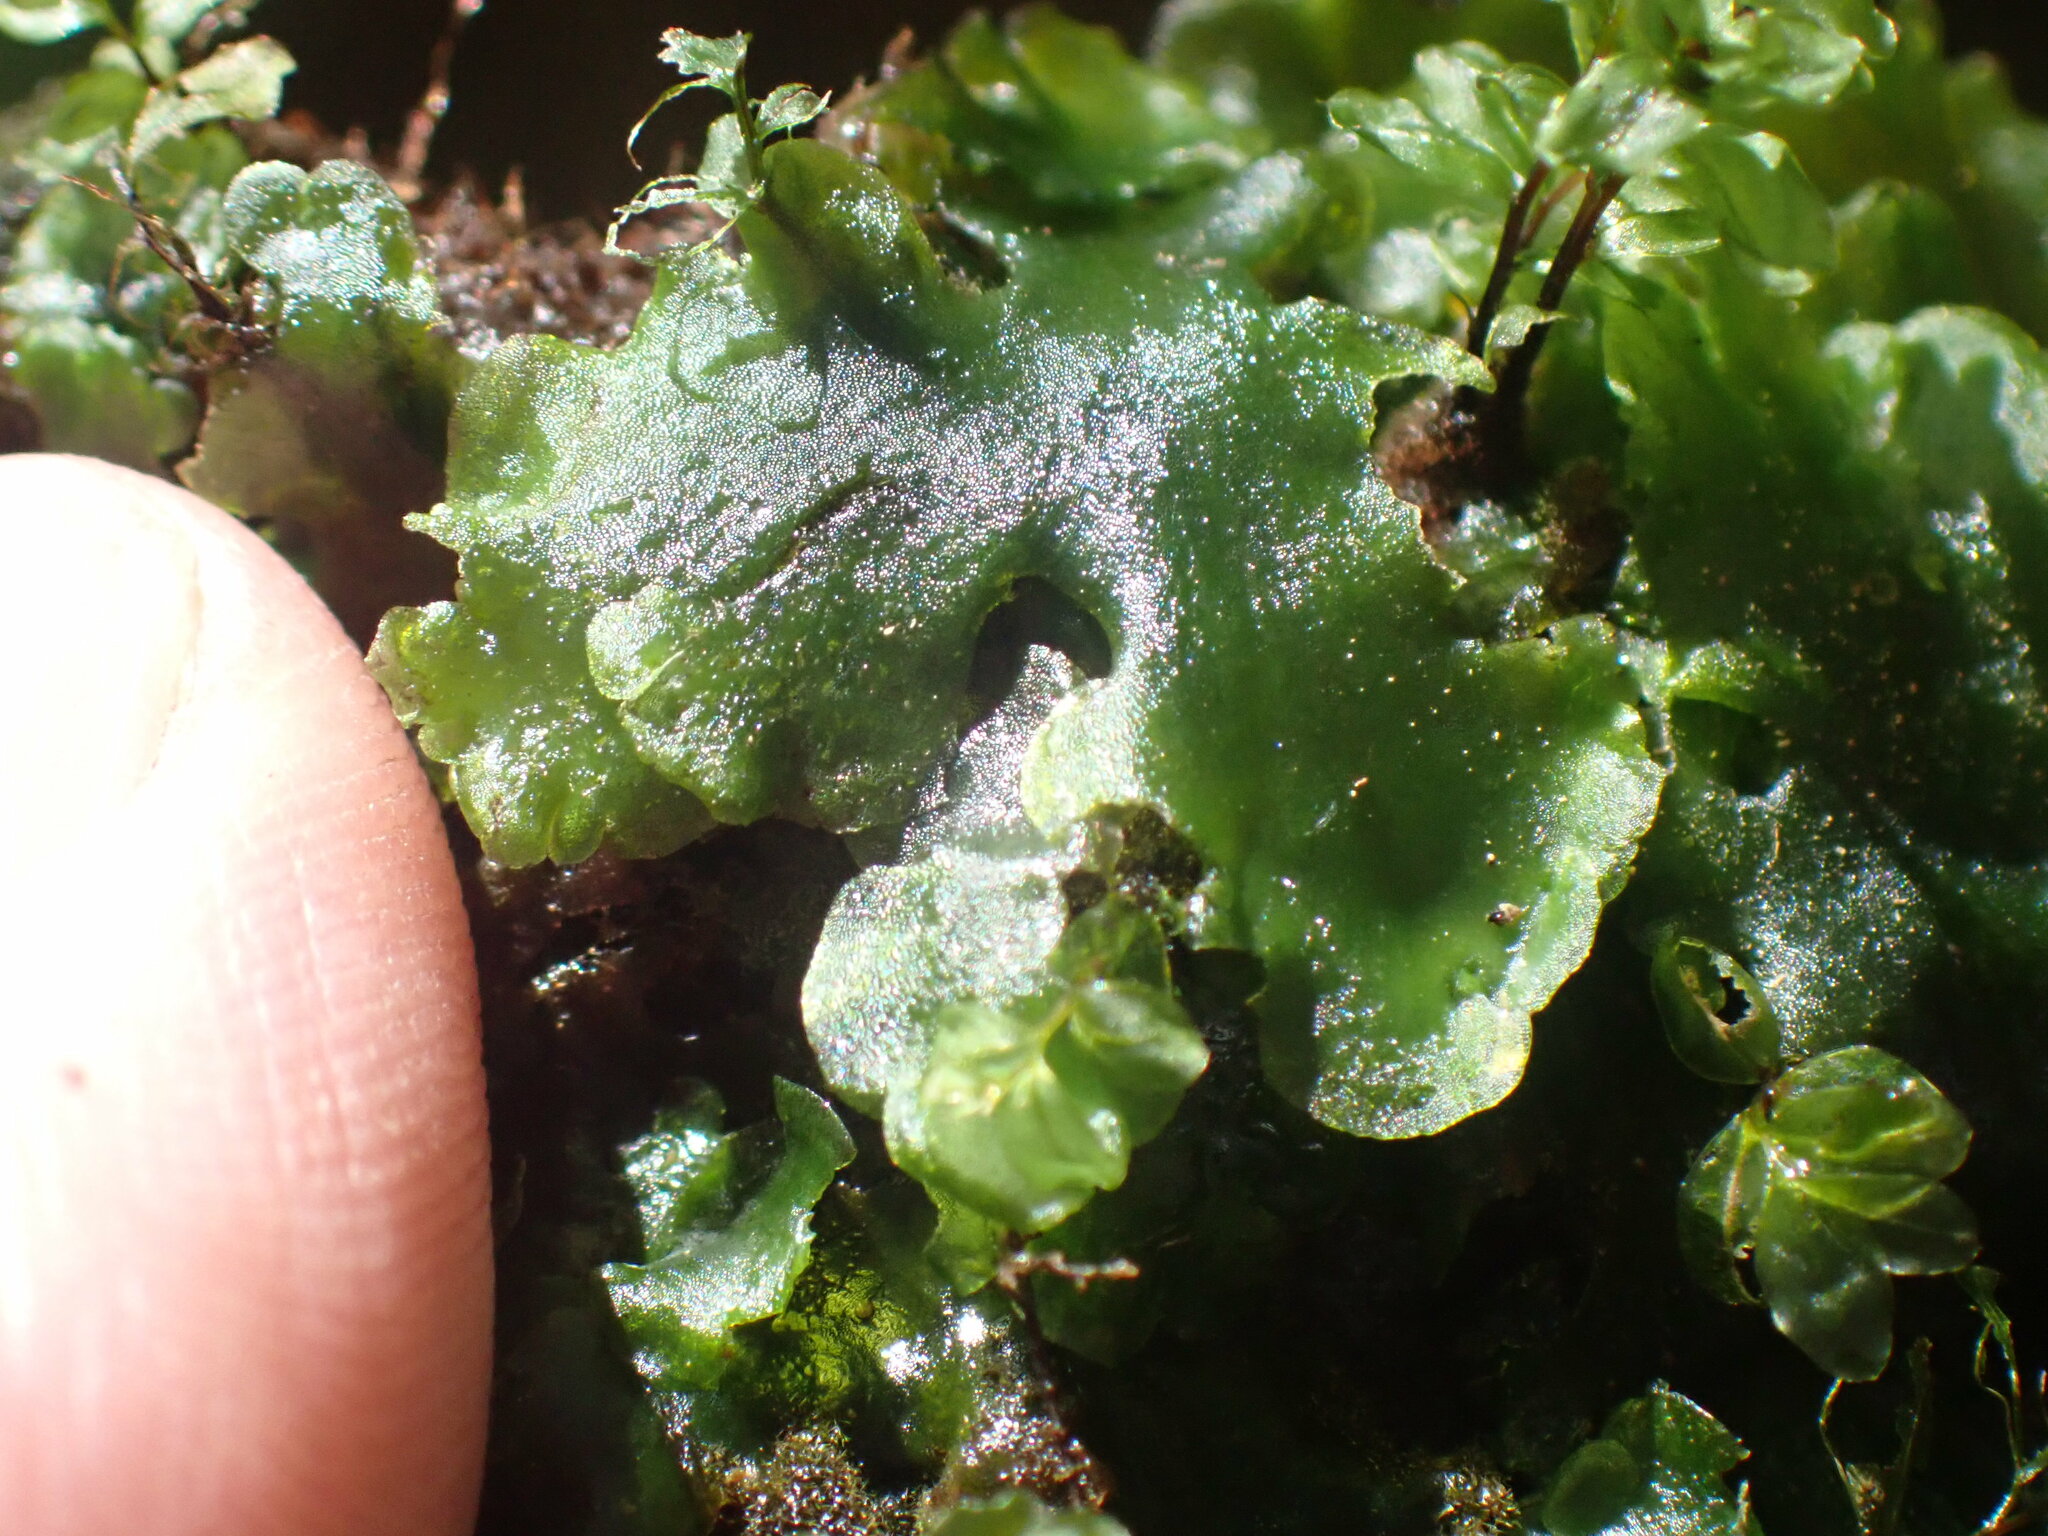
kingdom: Plantae
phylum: Marchantiophyta
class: Jungermanniopsida
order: Pelliales
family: Pelliaceae
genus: Pellia
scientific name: Pellia neesiana
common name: Nees  pellia
